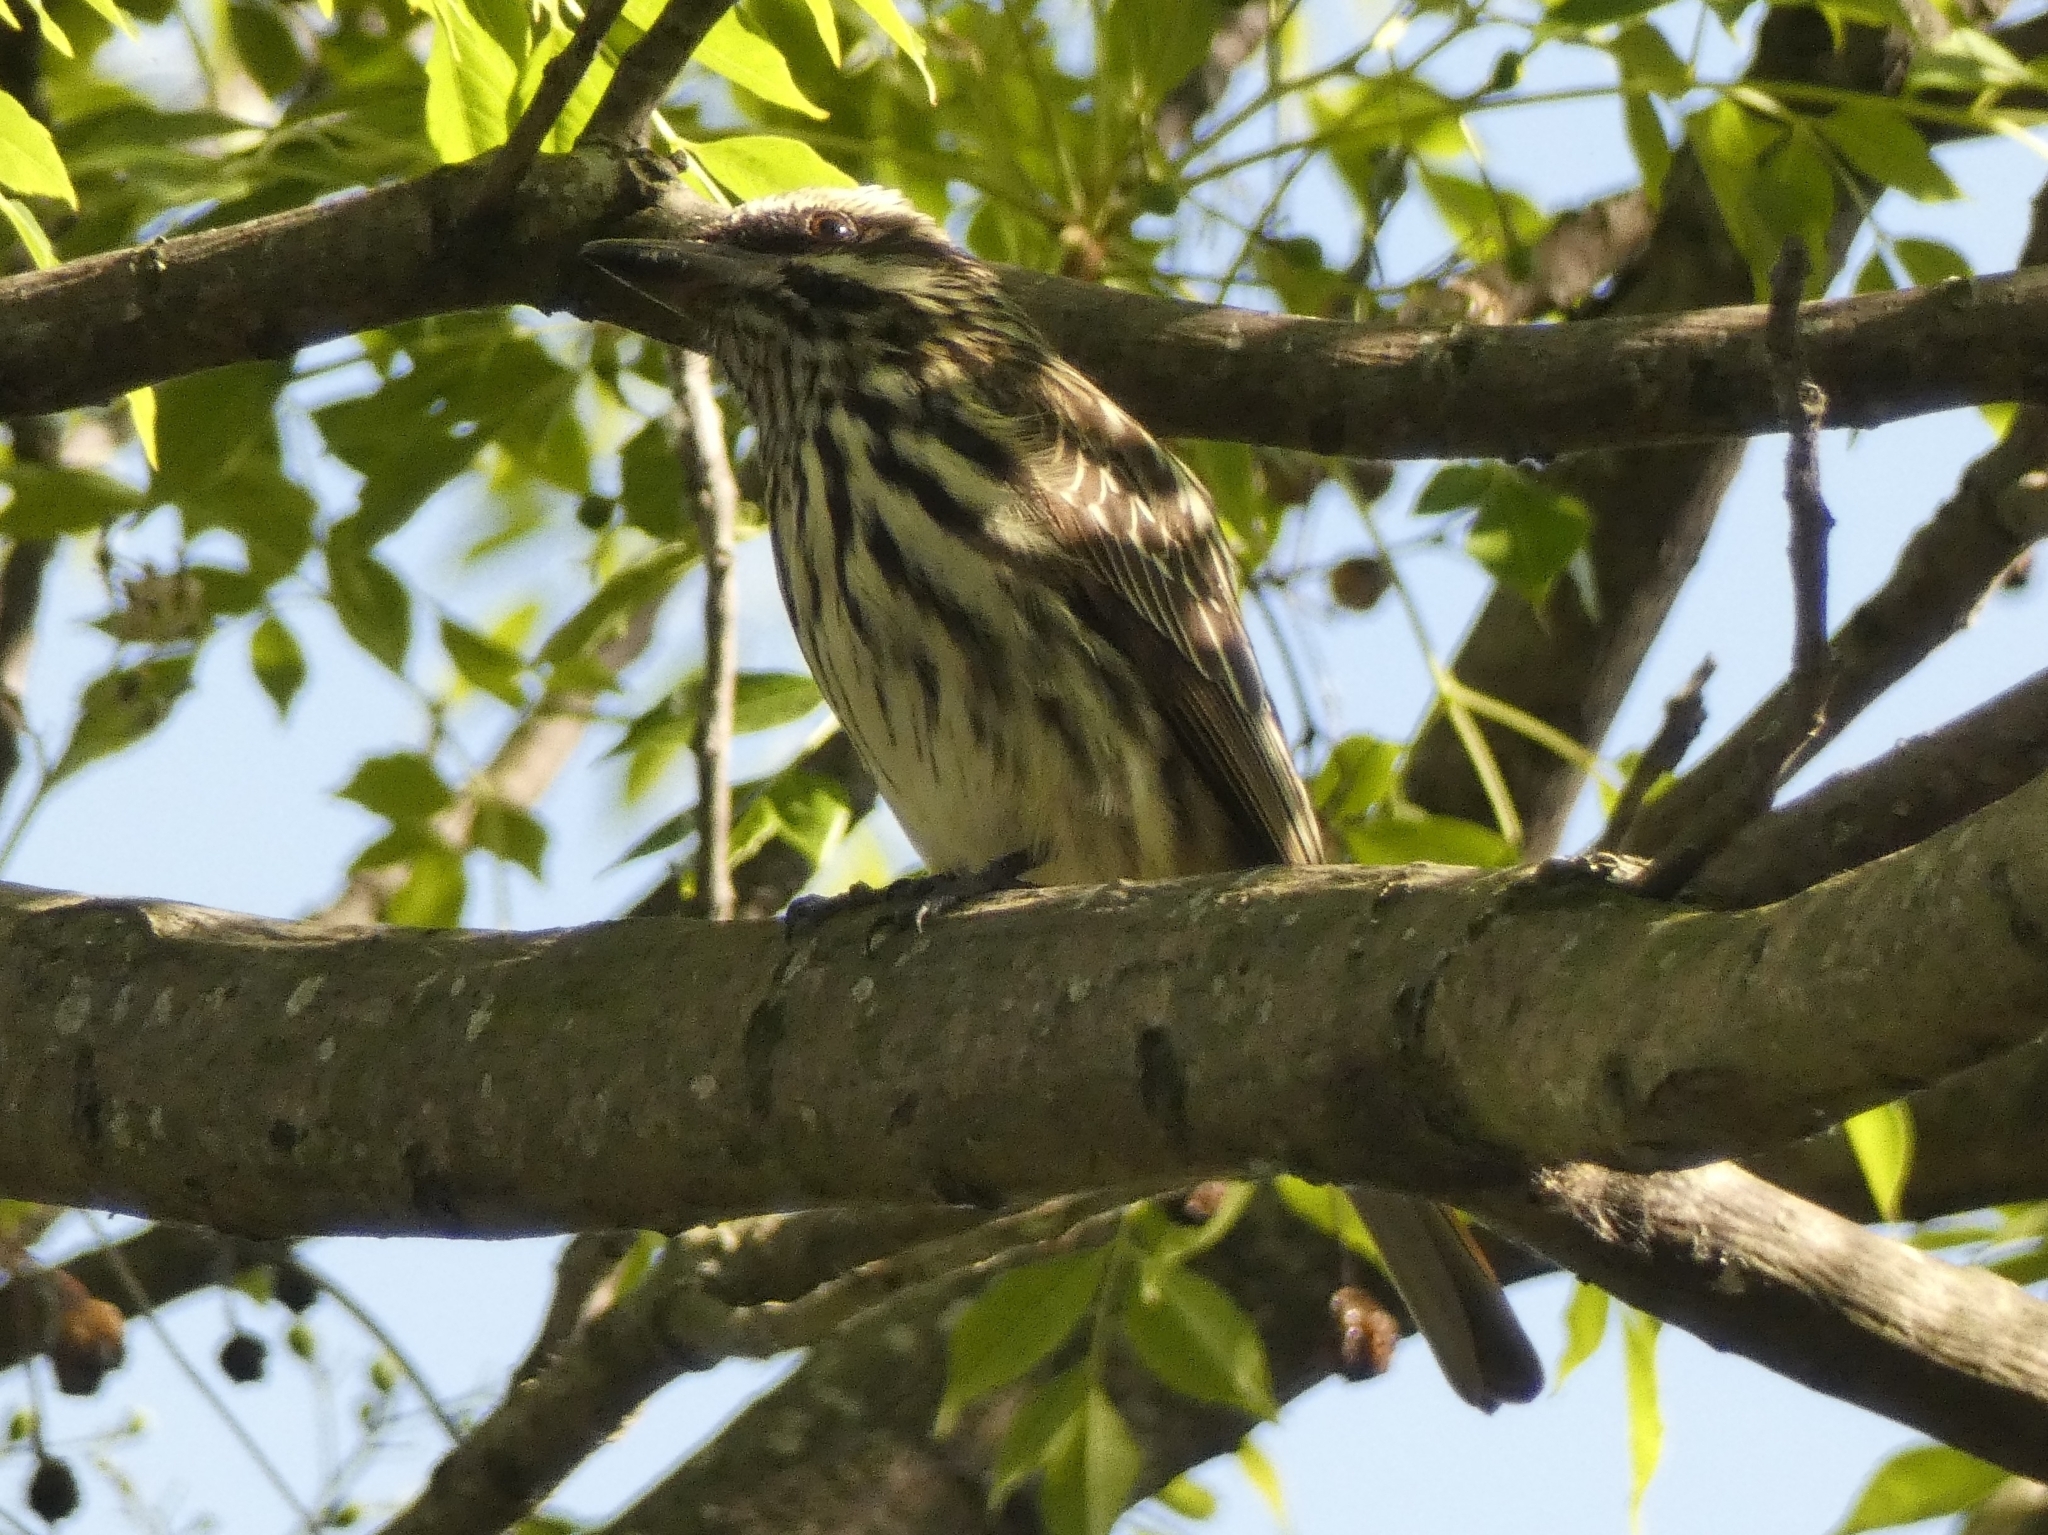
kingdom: Animalia
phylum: Chordata
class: Aves
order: Passeriformes
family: Tyrannidae
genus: Myiodynastes
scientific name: Myiodynastes maculatus
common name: Streaked flycatcher
